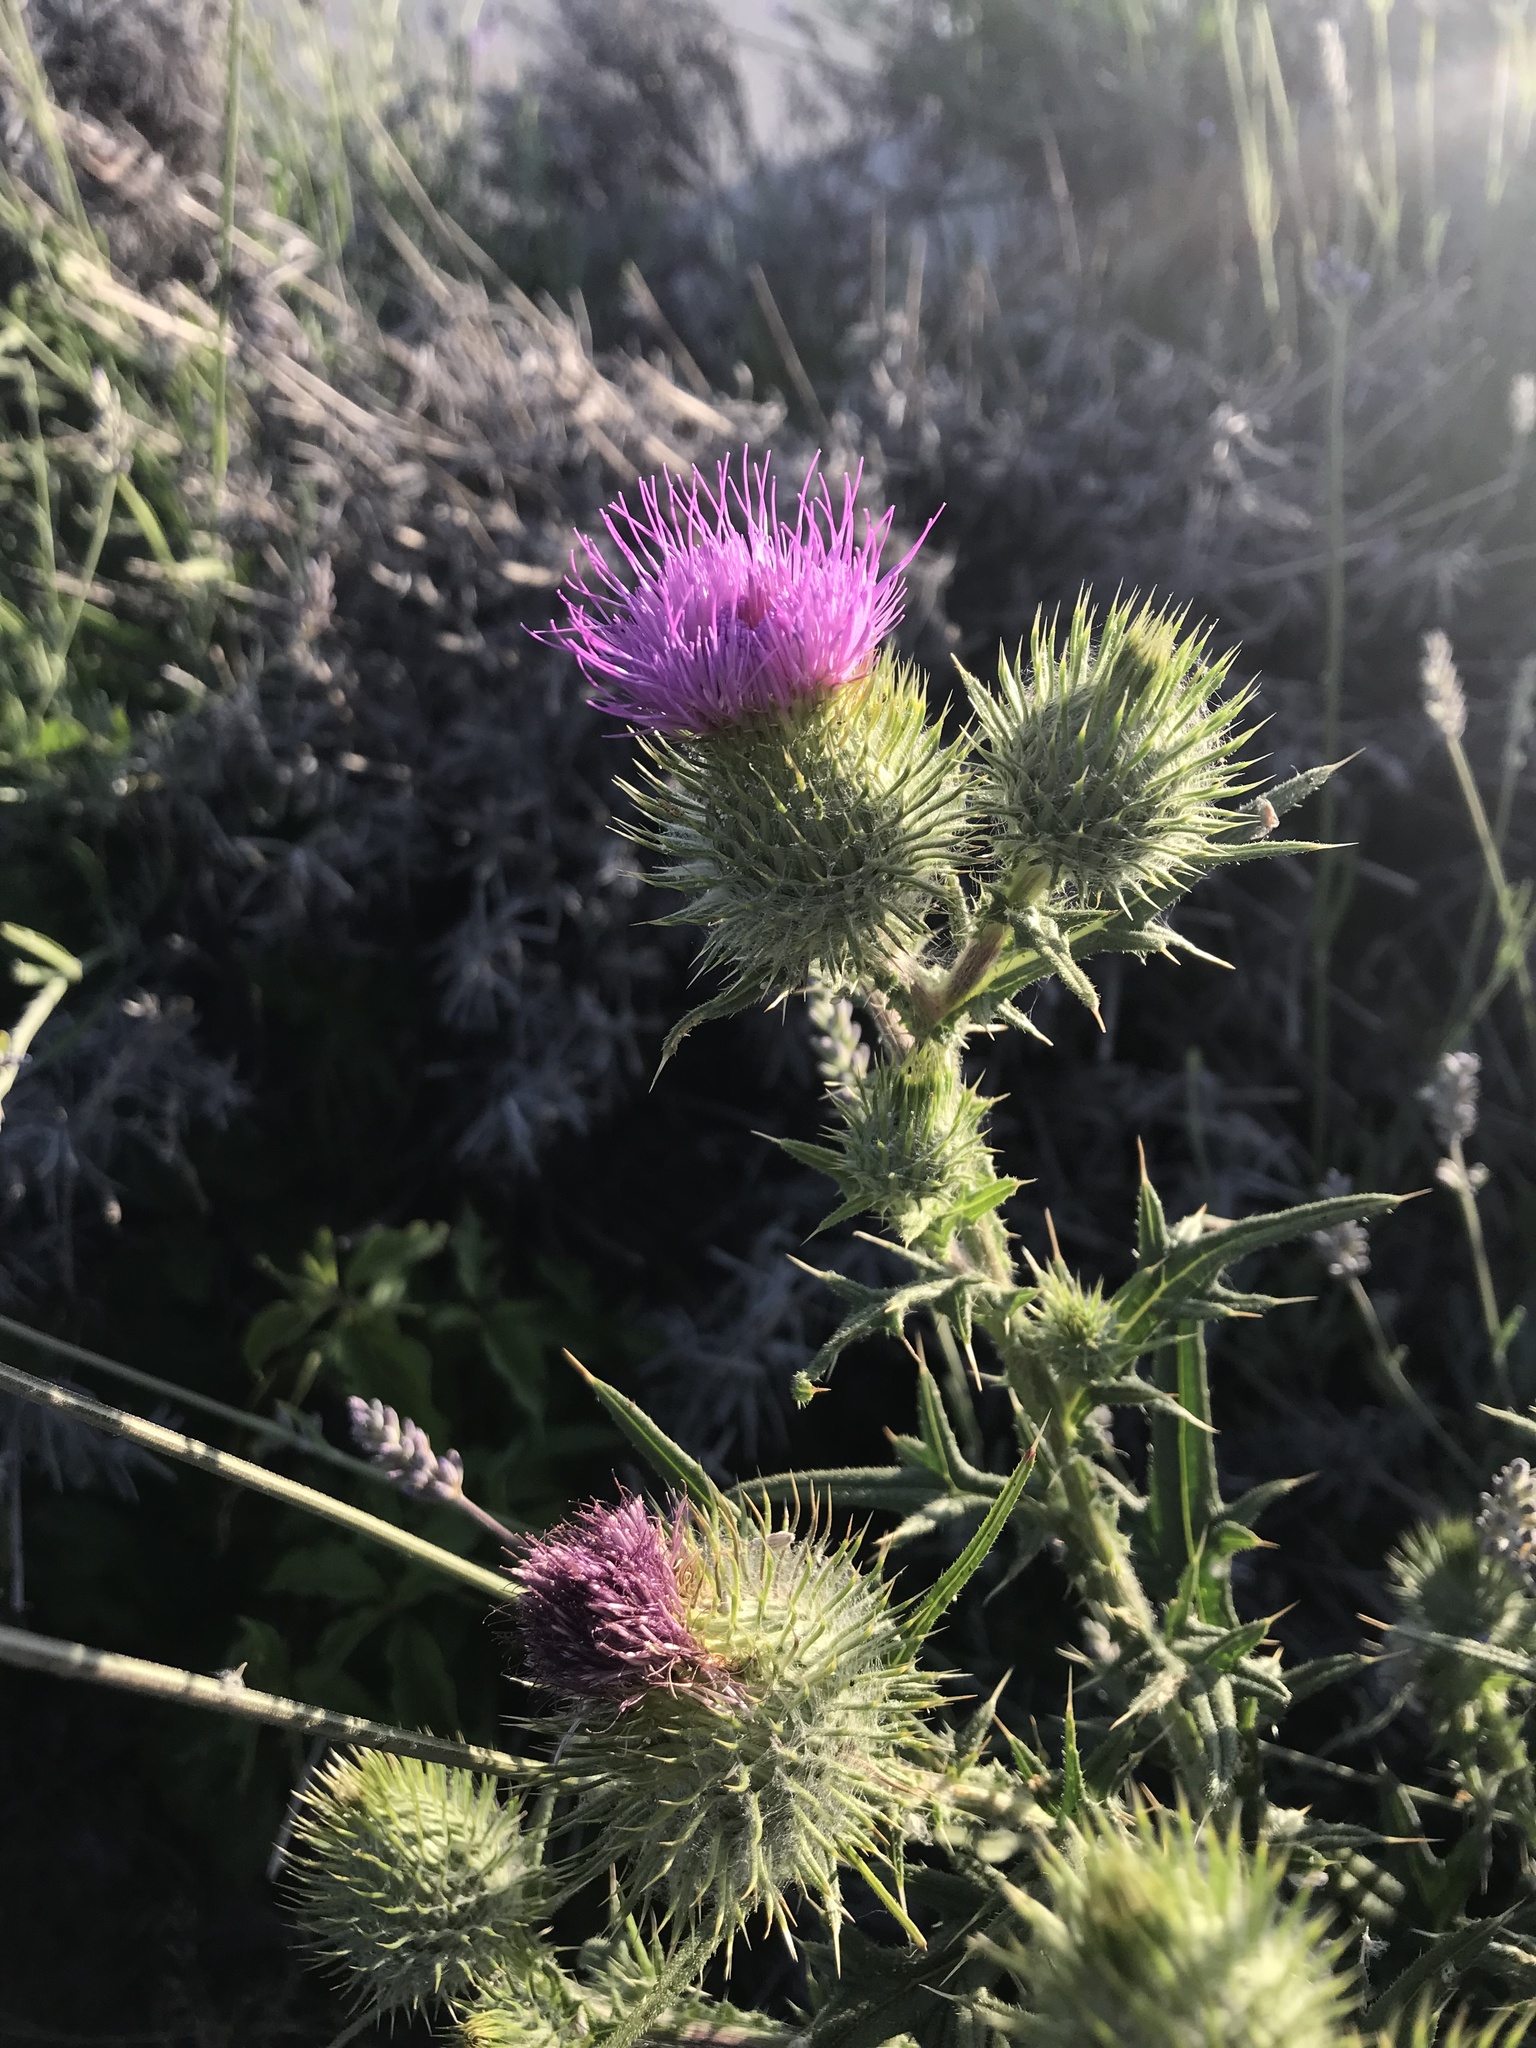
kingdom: Plantae
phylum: Tracheophyta
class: Magnoliopsida
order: Asterales
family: Asteraceae
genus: Cirsium
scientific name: Cirsium vulgare
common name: Bull thistle
